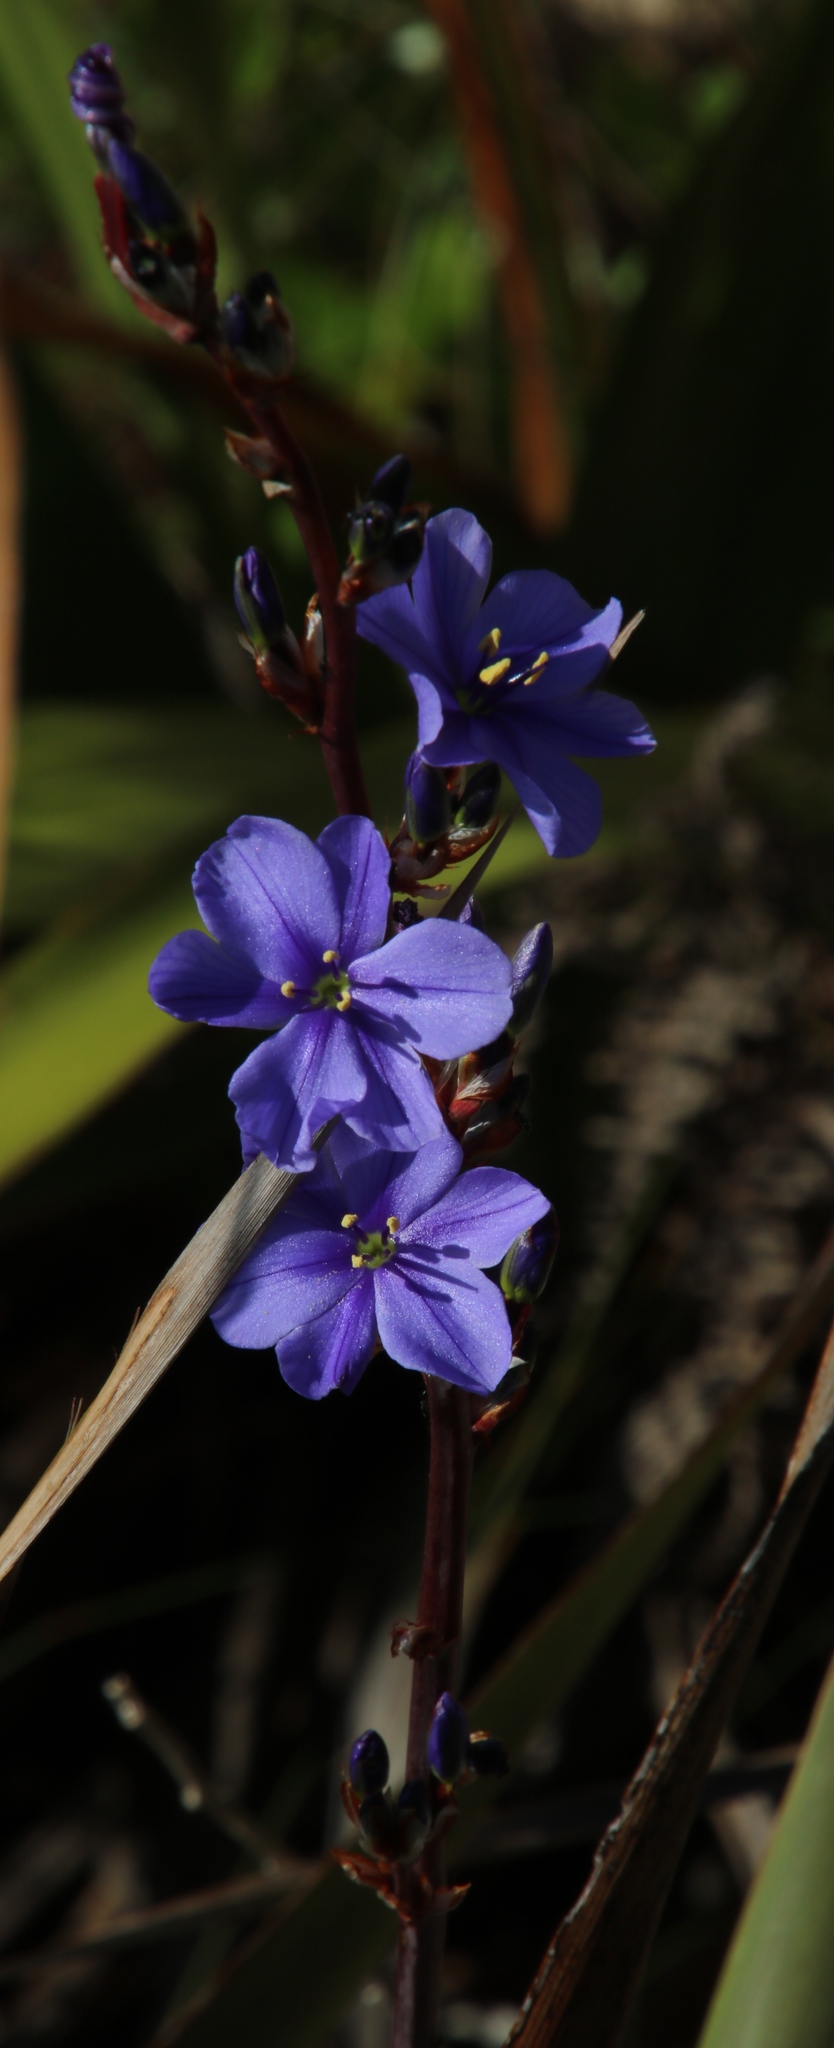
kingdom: Plantae
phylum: Tracheophyta
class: Liliopsida
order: Asparagales
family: Iridaceae
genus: Aristea
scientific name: Aristea bakeri
